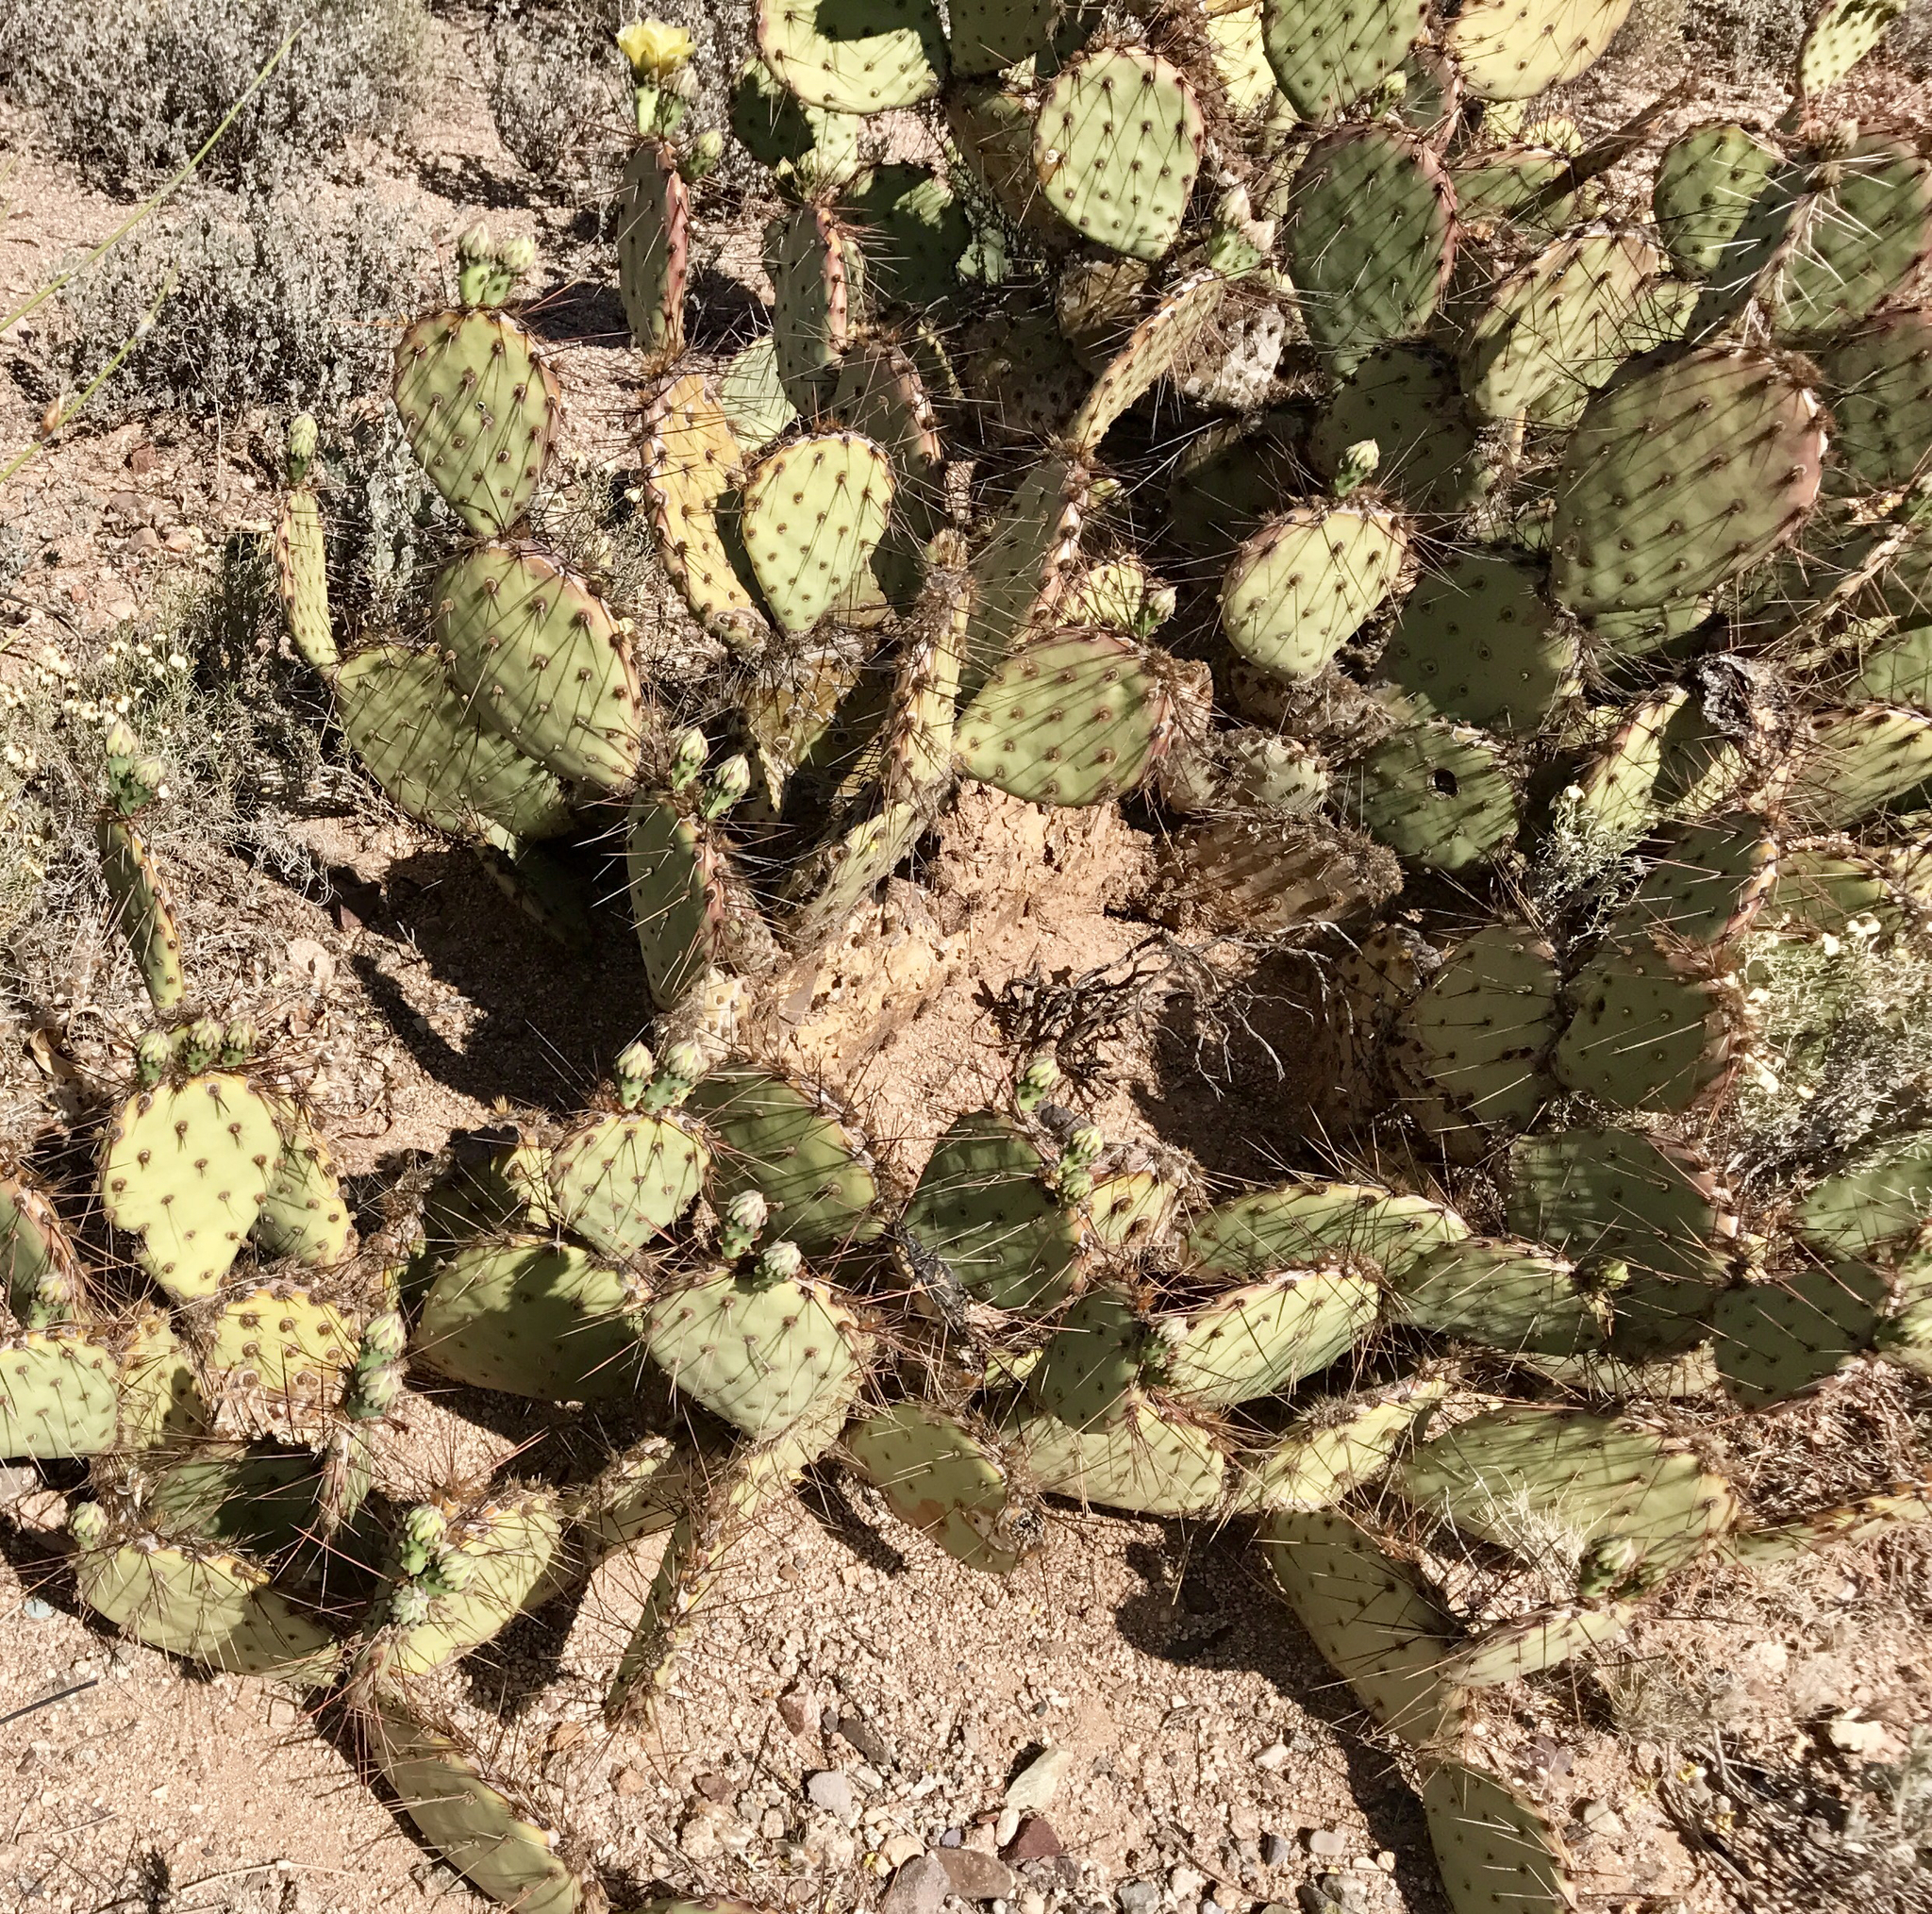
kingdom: Plantae
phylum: Tracheophyta
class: Magnoliopsida
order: Caryophyllales
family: Cactaceae
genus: Opuntia
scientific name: Opuntia phaeacantha
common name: New mexico prickly-pear
